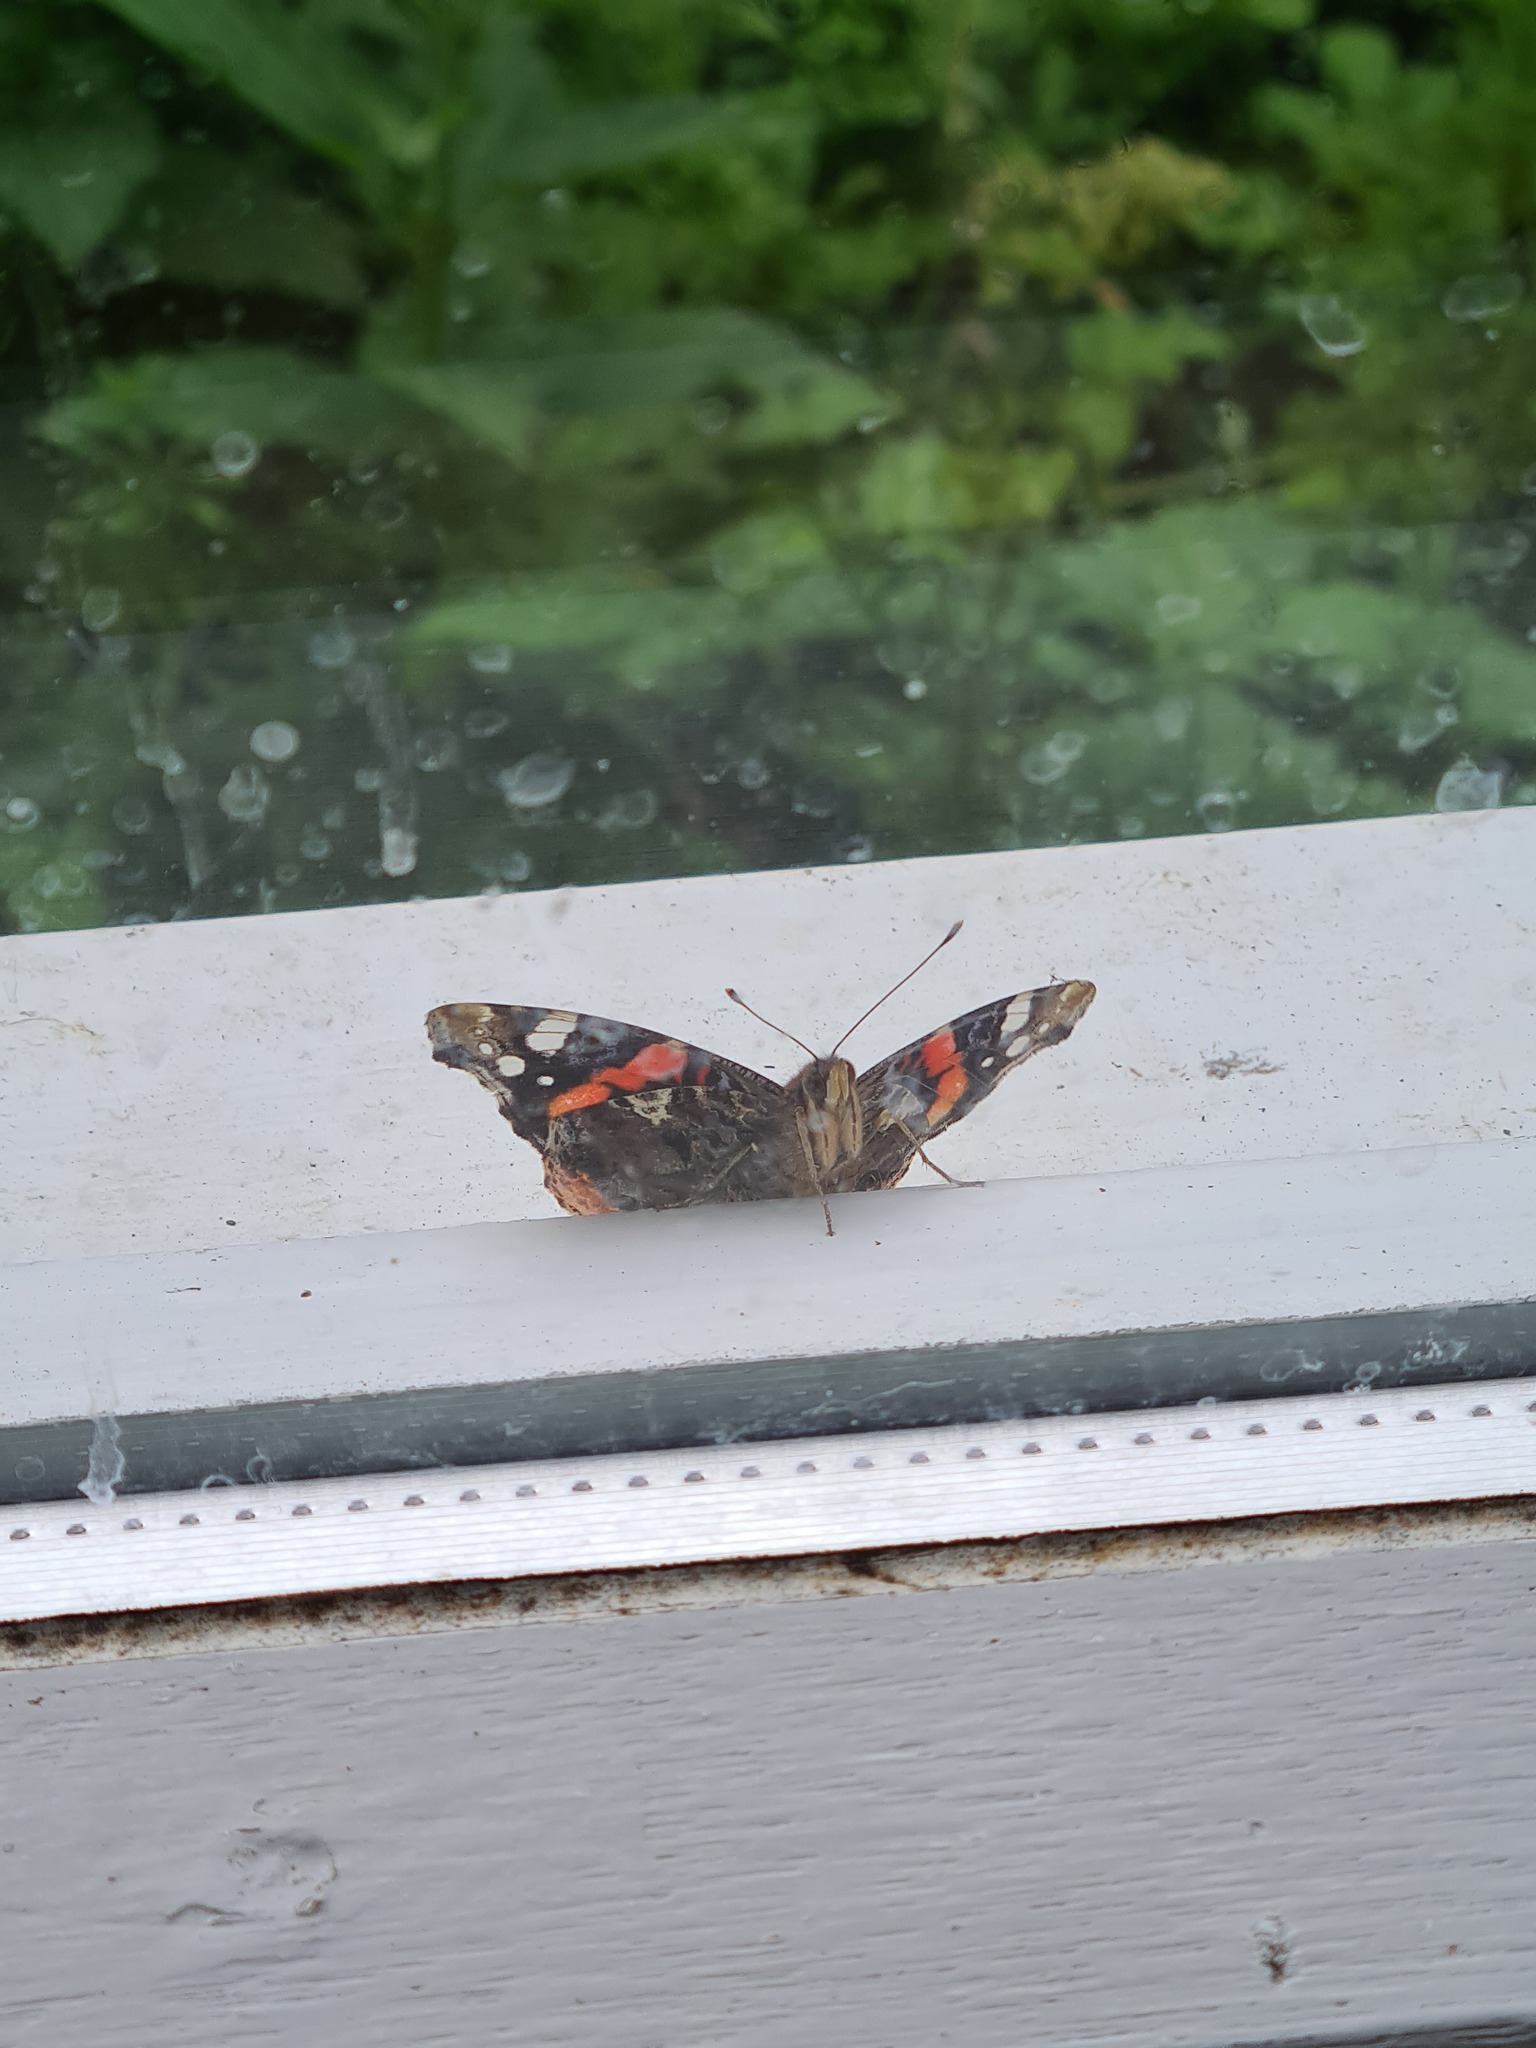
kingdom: Animalia
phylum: Arthropoda
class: Insecta
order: Lepidoptera
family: Nymphalidae
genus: Vanessa
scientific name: Vanessa atalanta
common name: Red admiral
